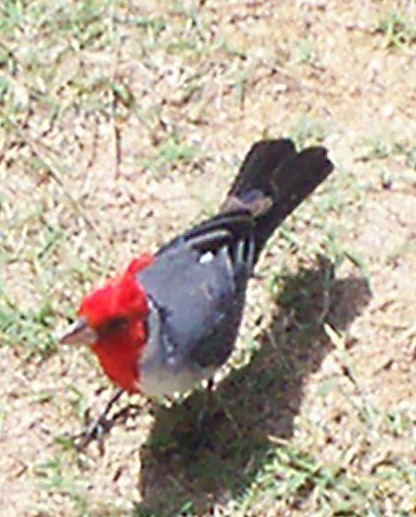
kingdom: Animalia
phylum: Chordata
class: Aves
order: Passeriformes
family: Thraupidae
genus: Paroaria
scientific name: Paroaria coronata
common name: Red-crested cardinal
